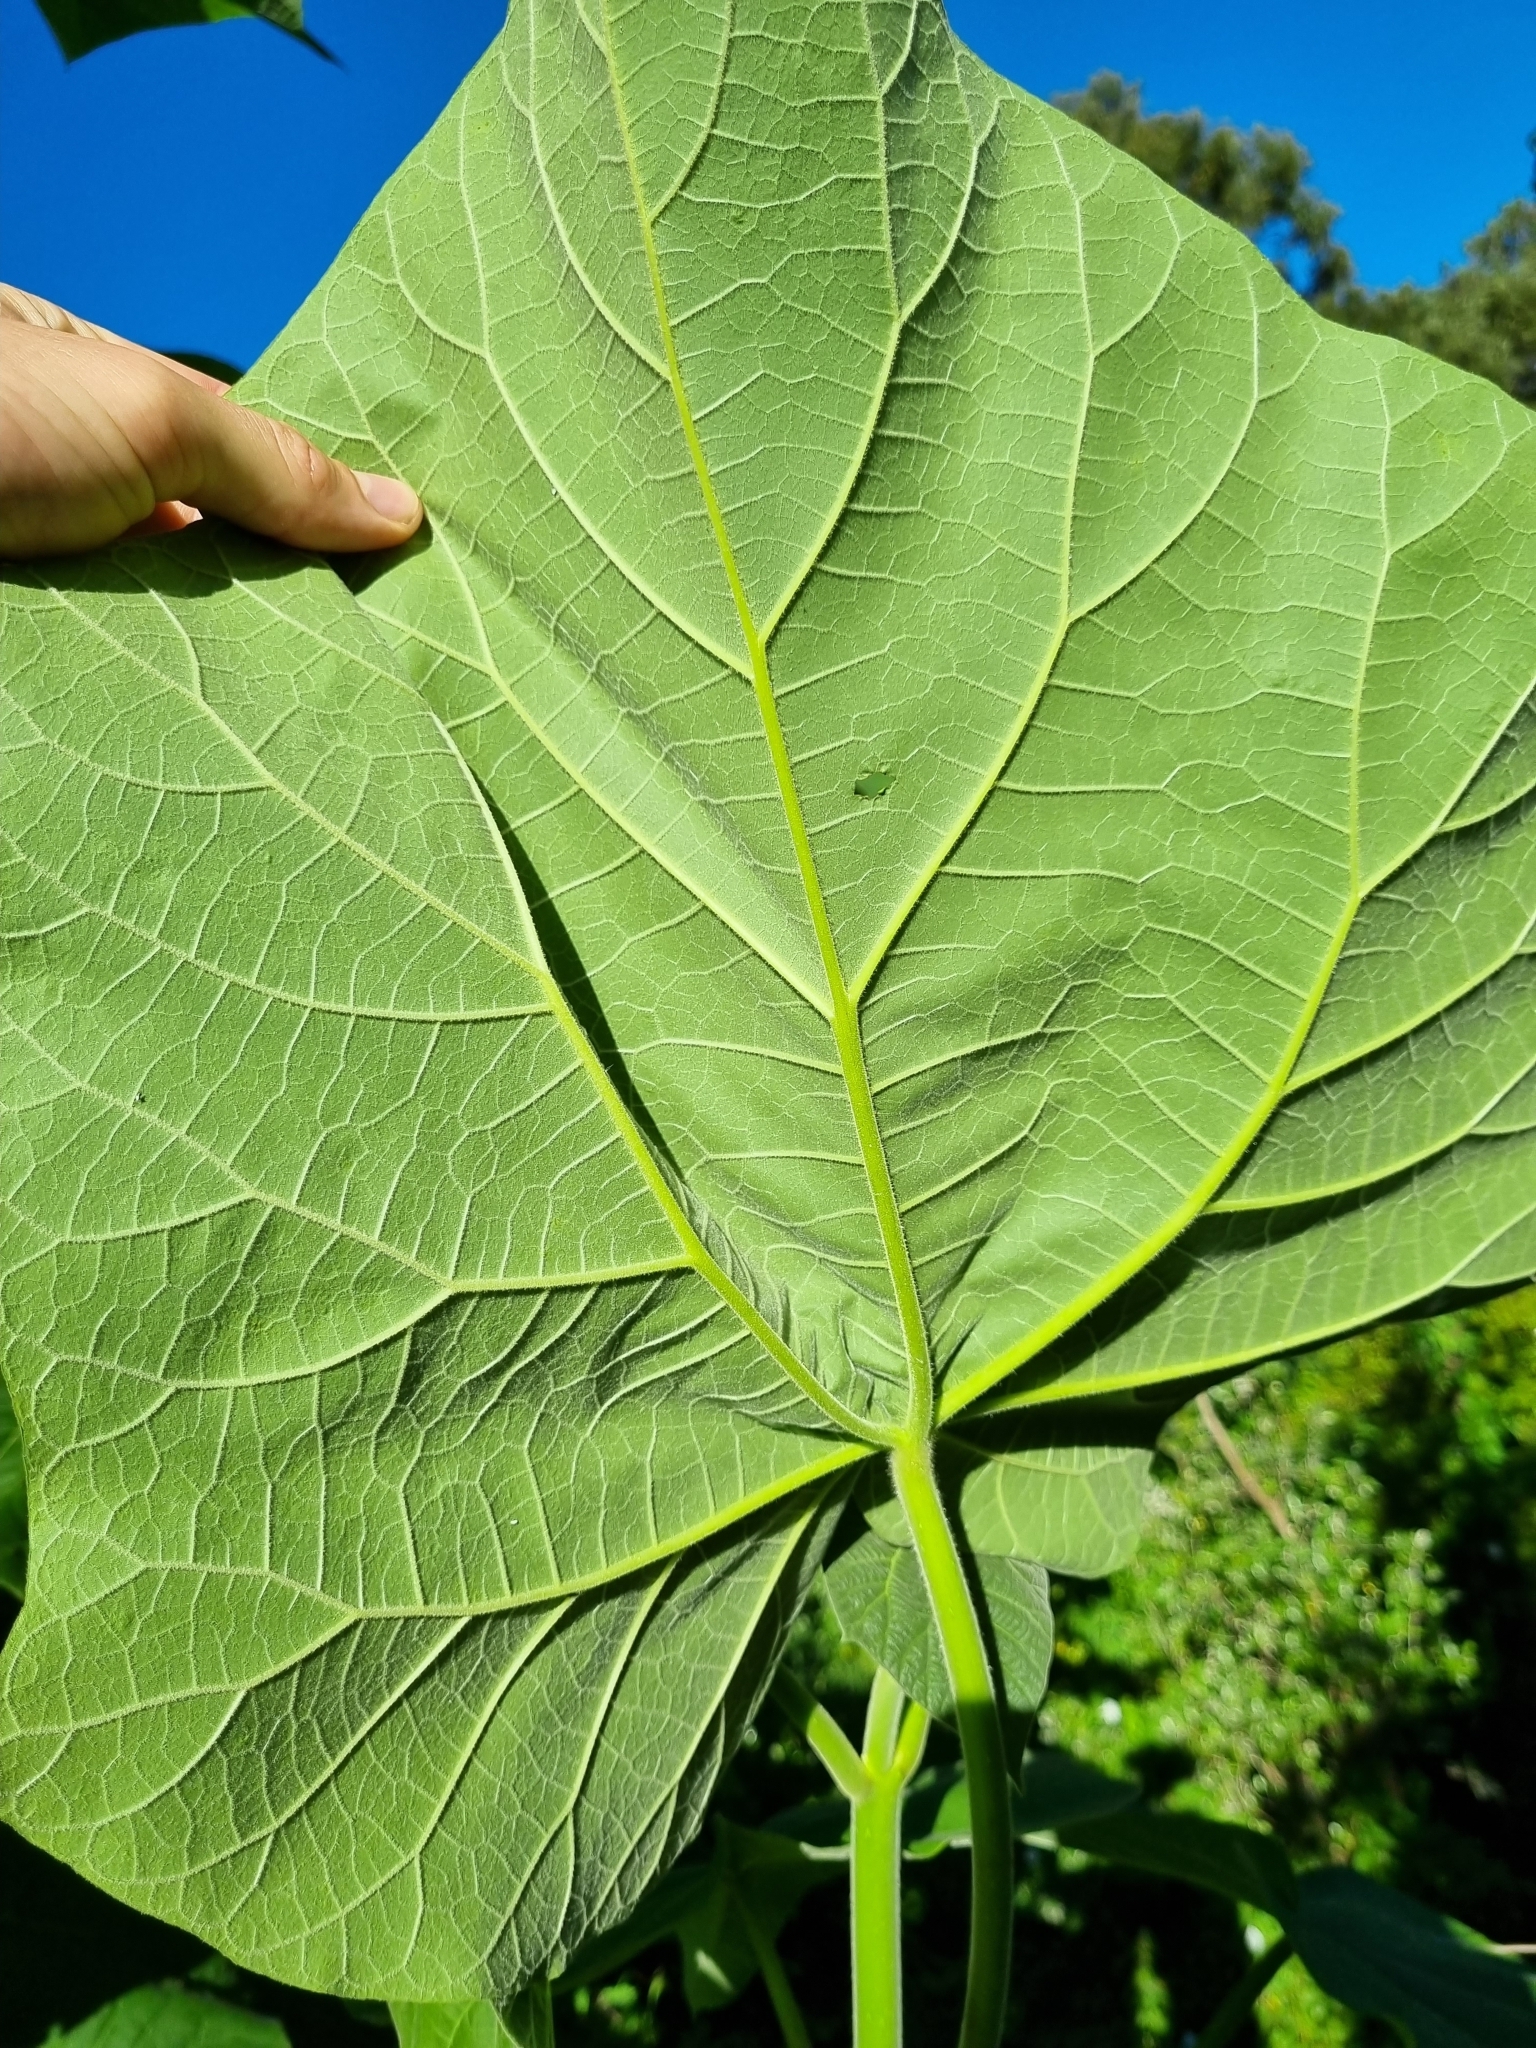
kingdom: Plantae
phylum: Tracheophyta
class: Magnoliopsida
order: Lamiales
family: Paulowniaceae
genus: Paulownia
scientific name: Paulownia tomentosa
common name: Foxglove-tree
